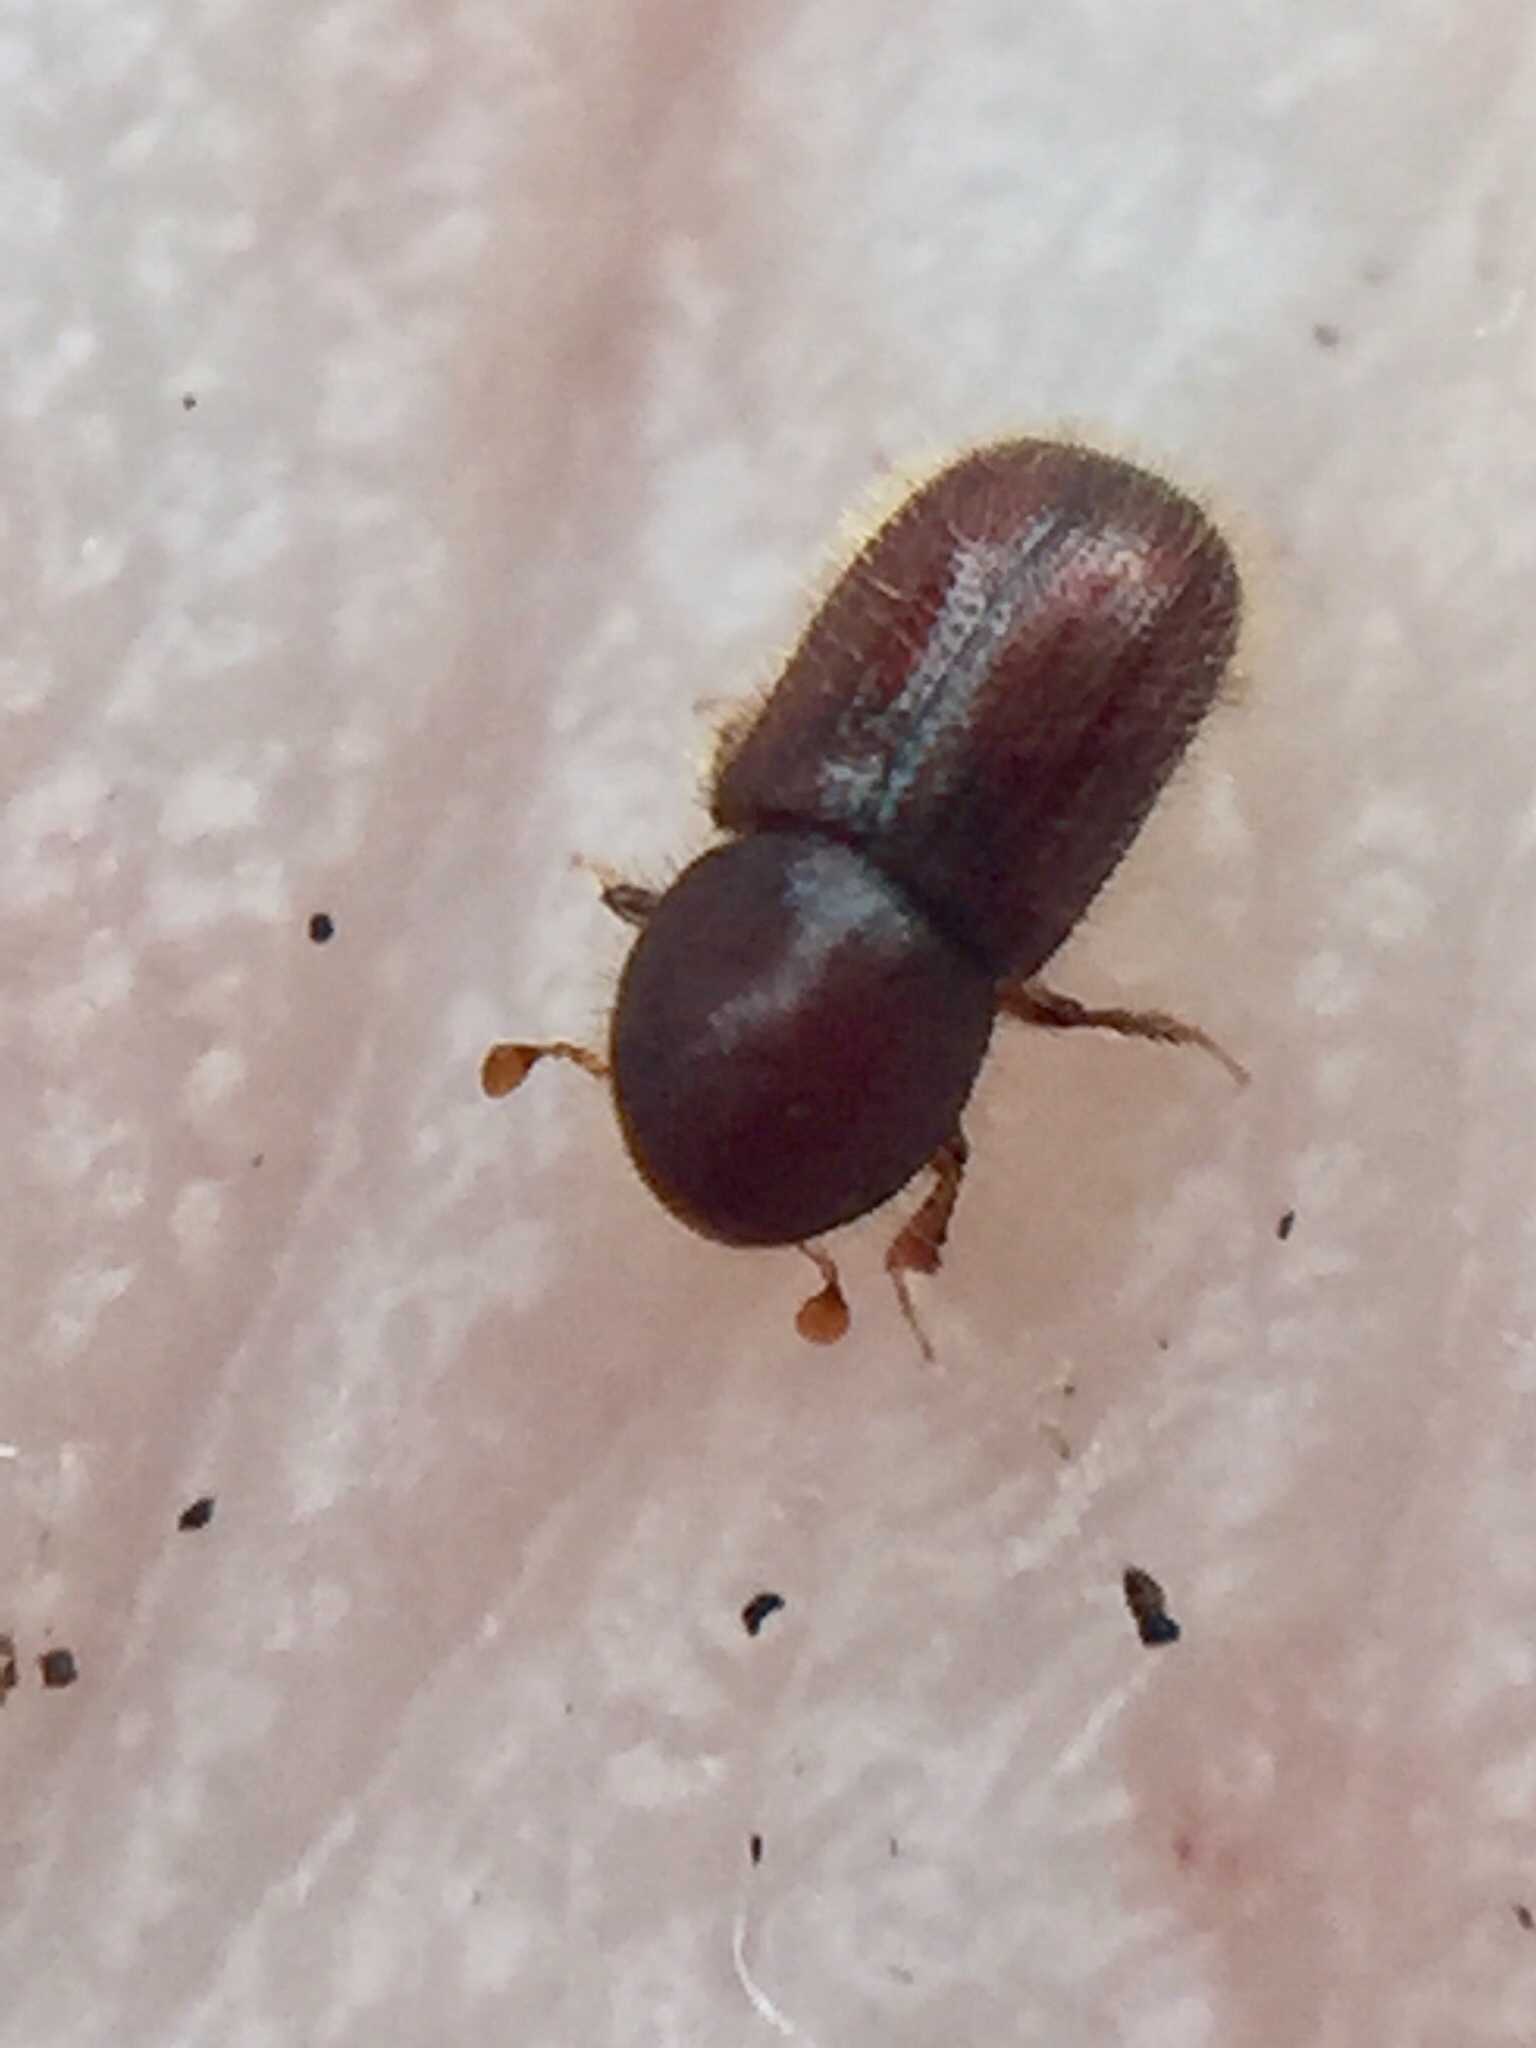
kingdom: Animalia
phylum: Arthropoda
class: Insecta
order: Coleoptera
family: Curculionidae
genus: Coccotrypes
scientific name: Coccotrypes dactyliperda
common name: Bark beetle
